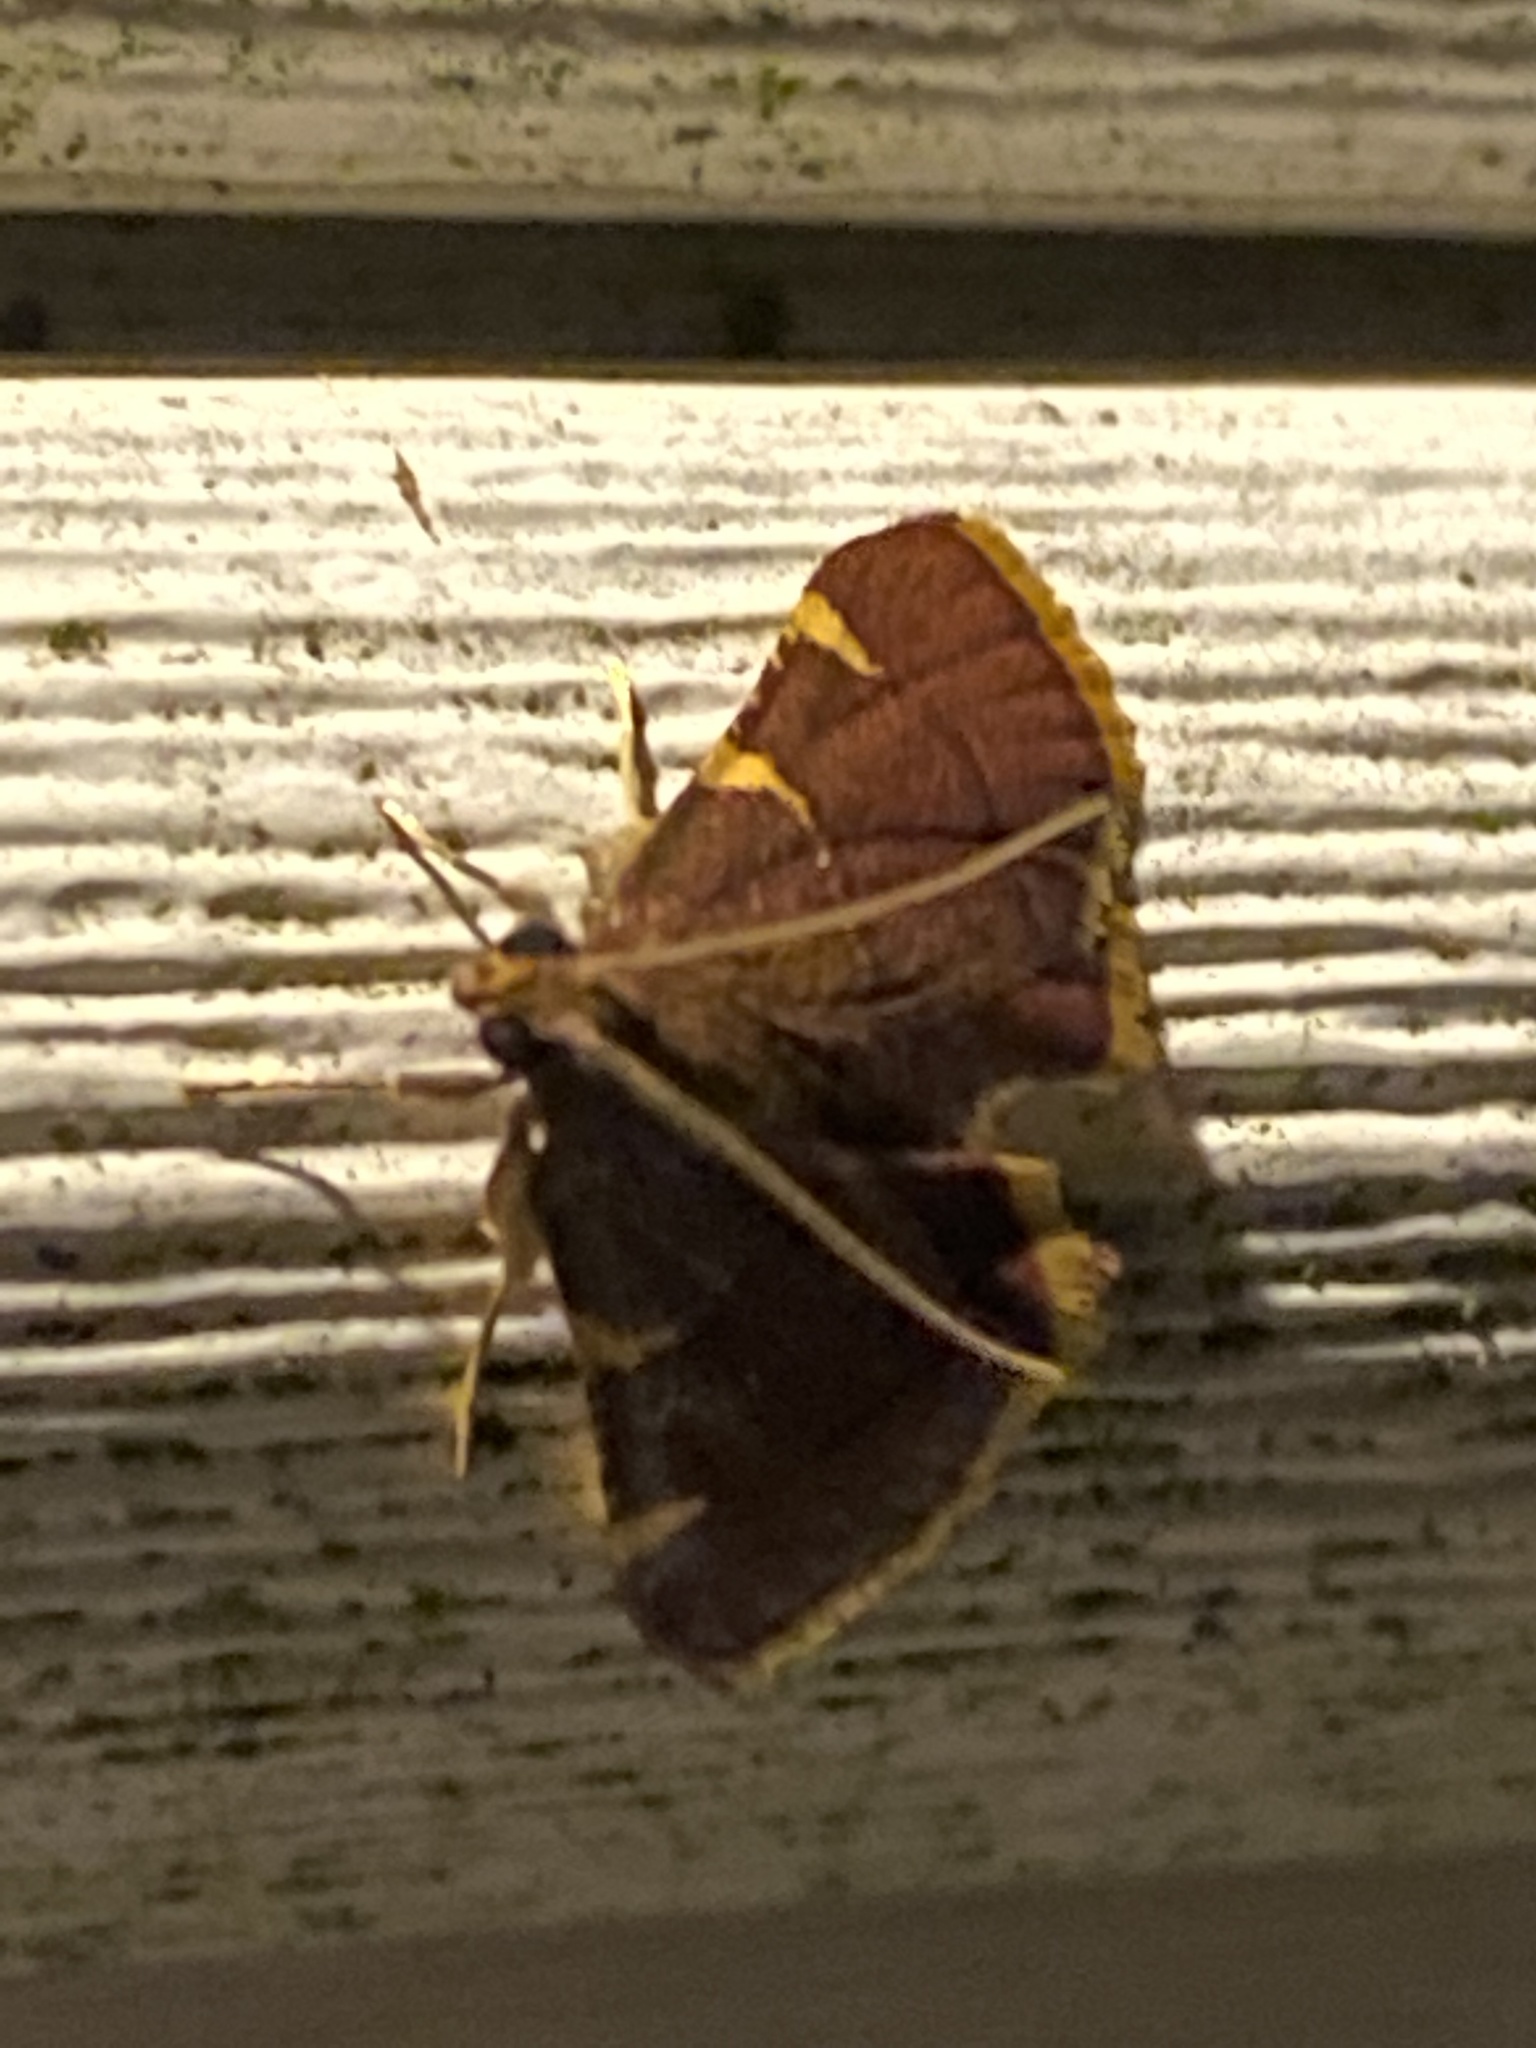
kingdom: Animalia
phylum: Arthropoda
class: Insecta
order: Lepidoptera
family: Pyralidae
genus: Hypsopygia
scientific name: Hypsopygia olinalis
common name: Yellow-fringed dolichomia moth
